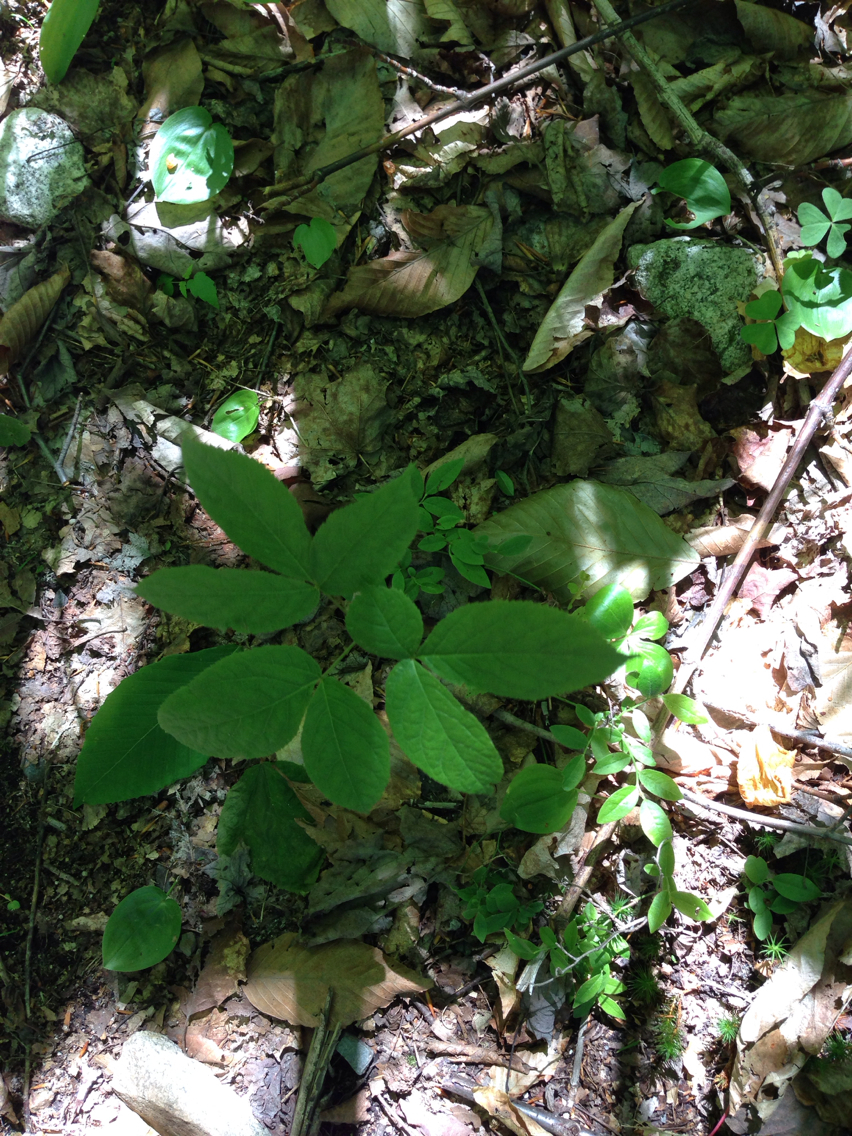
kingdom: Plantae
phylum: Tracheophyta
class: Magnoliopsida
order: Apiales
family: Araliaceae
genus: Aralia
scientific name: Aralia nudicaulis
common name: Wild sarsaparilla
